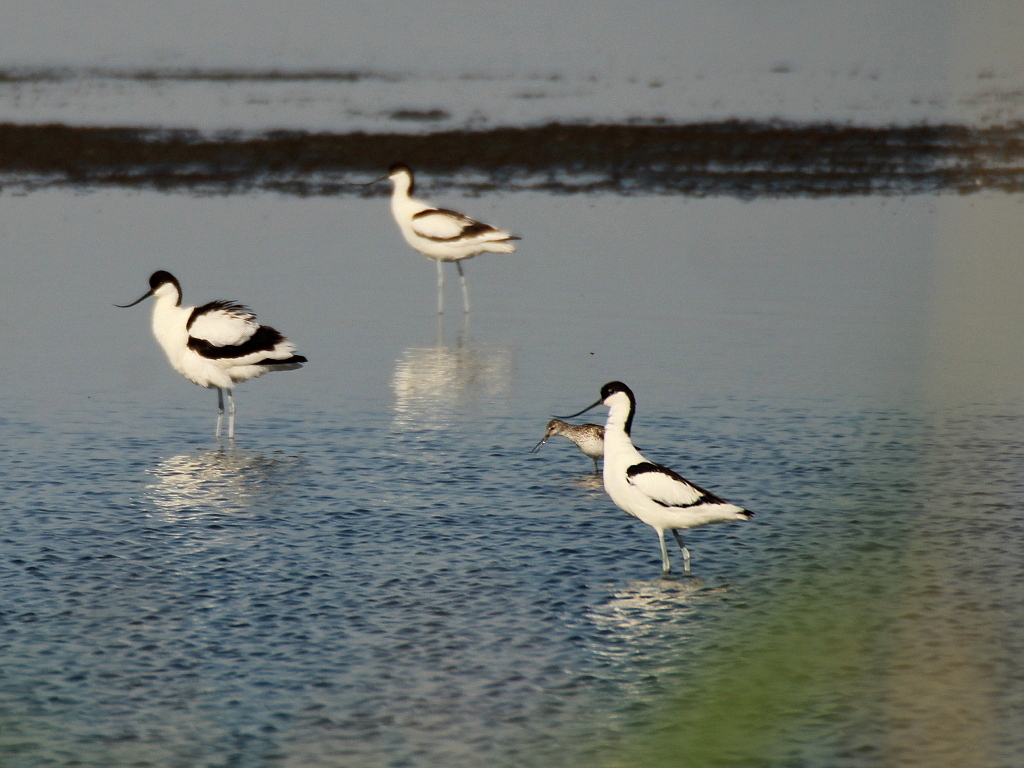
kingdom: Animalia
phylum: Chordata
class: Aves
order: Charadriiformes
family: Recurvirostridae
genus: Recurvirostra
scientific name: Recurvirostra avosetta
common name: Pied avocet
